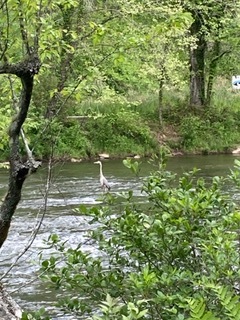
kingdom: Animalia
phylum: Chordata
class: Aves
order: Pelecaniformes
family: Ardeidae
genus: Ardea
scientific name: Ardea herodias
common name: Great blue heron
